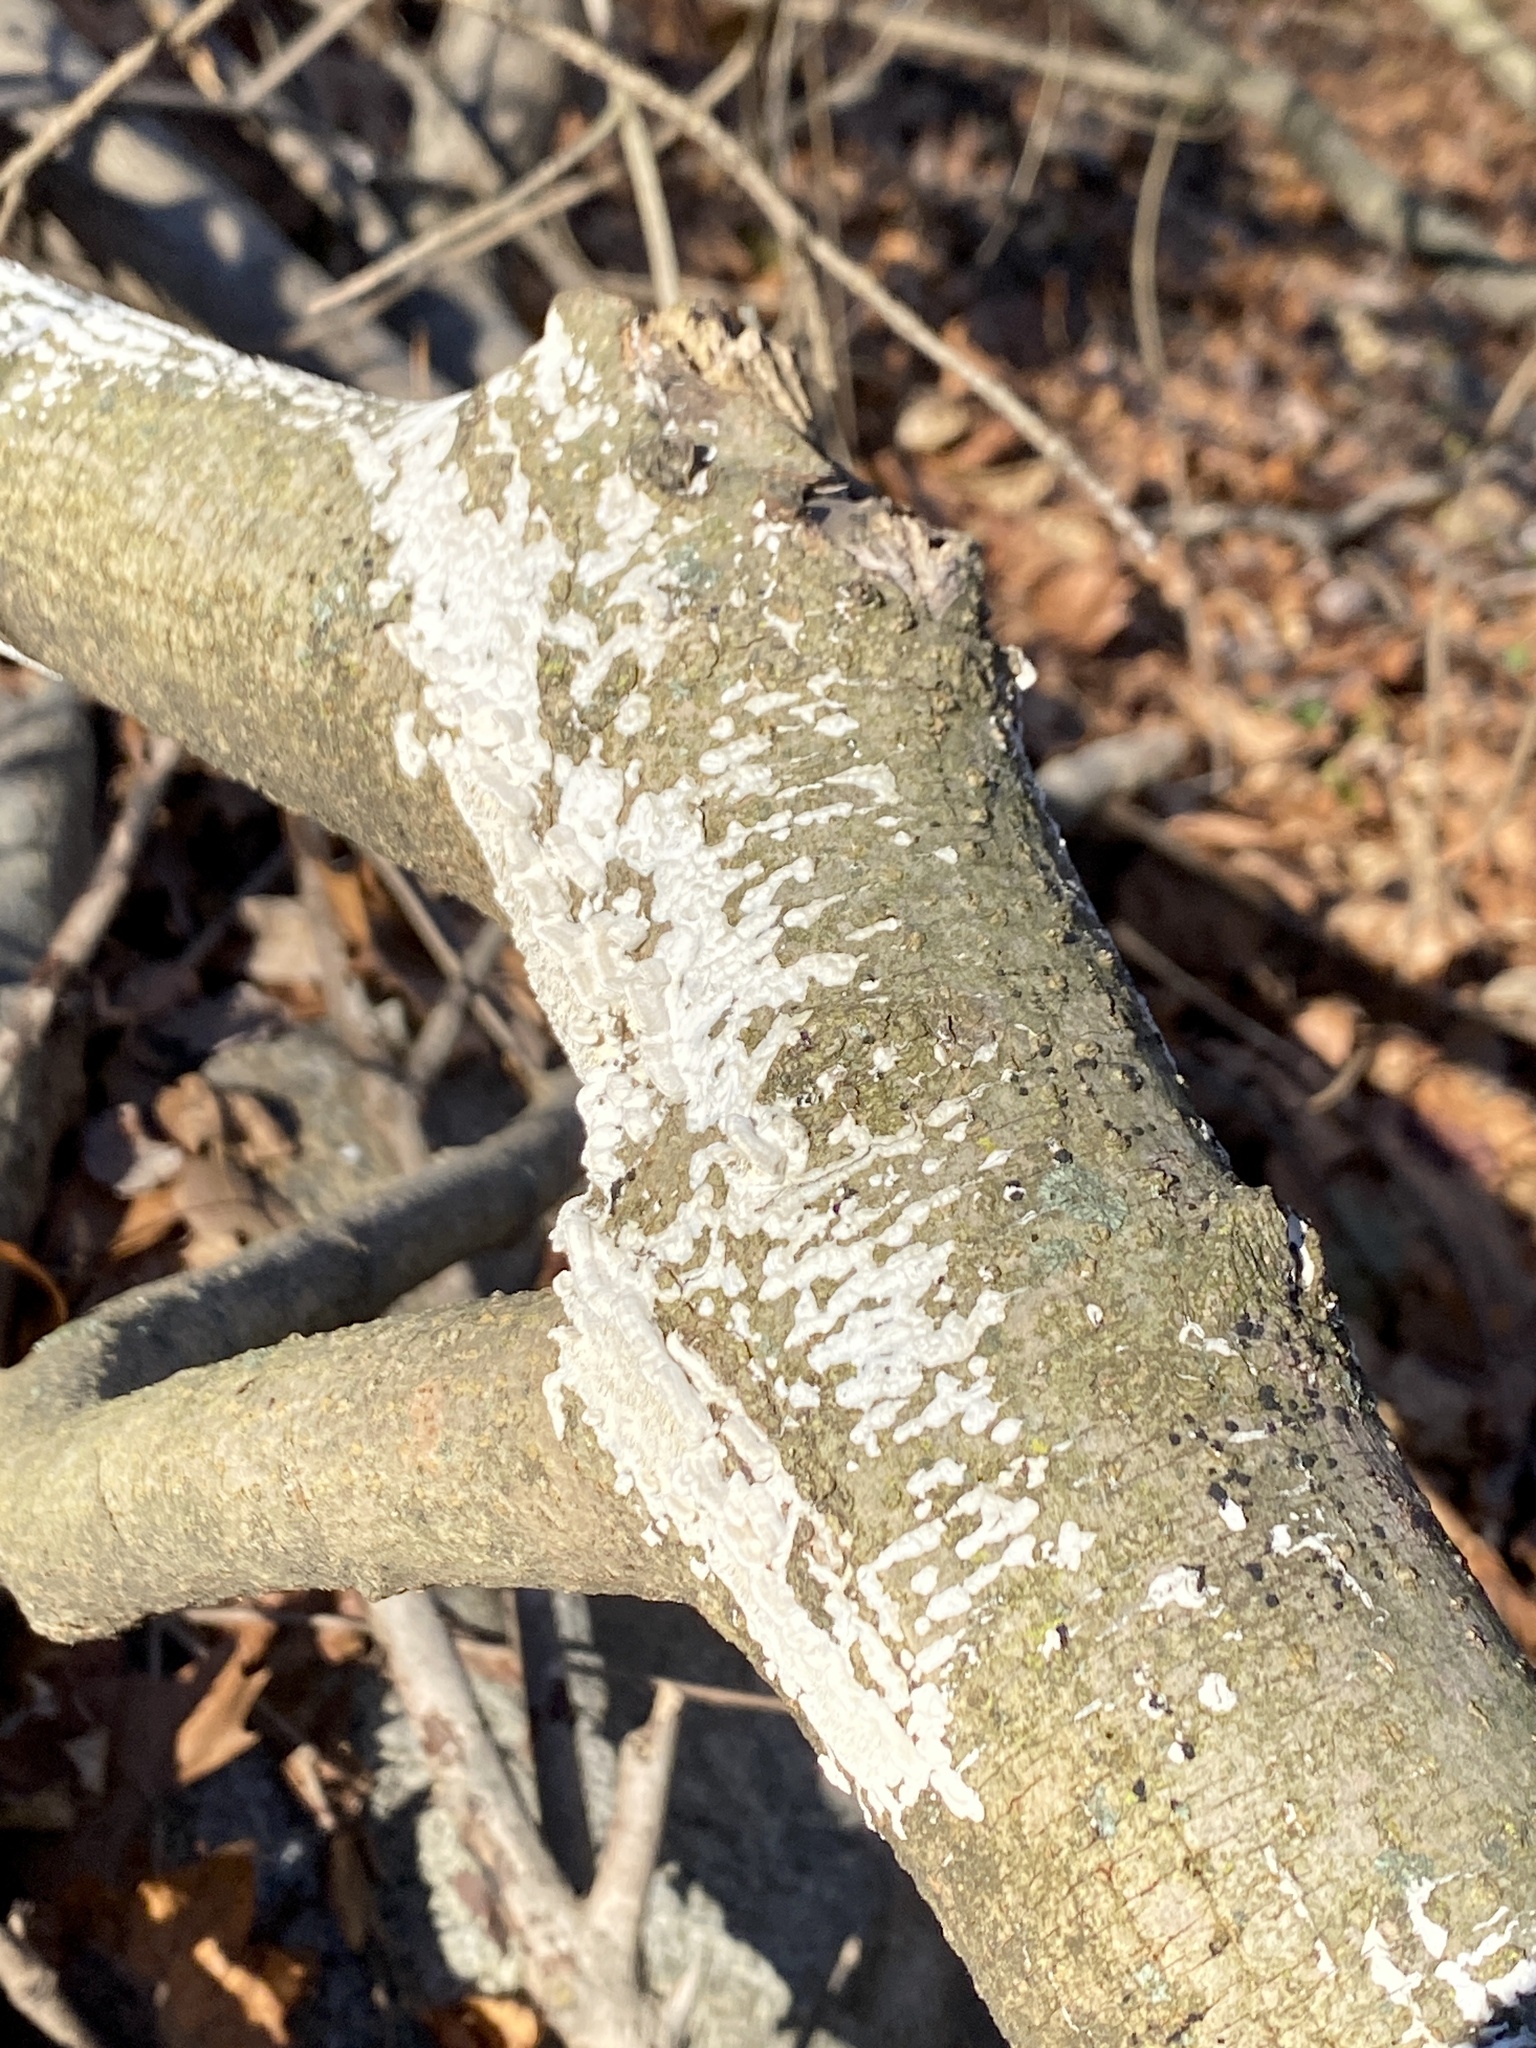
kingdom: Fungi
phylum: Basidiomycota
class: Agaricomycetes
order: Polyporales
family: Irpicaceae
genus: Irpex
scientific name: Irpex lacteus
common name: Milk-white toothed polypore
